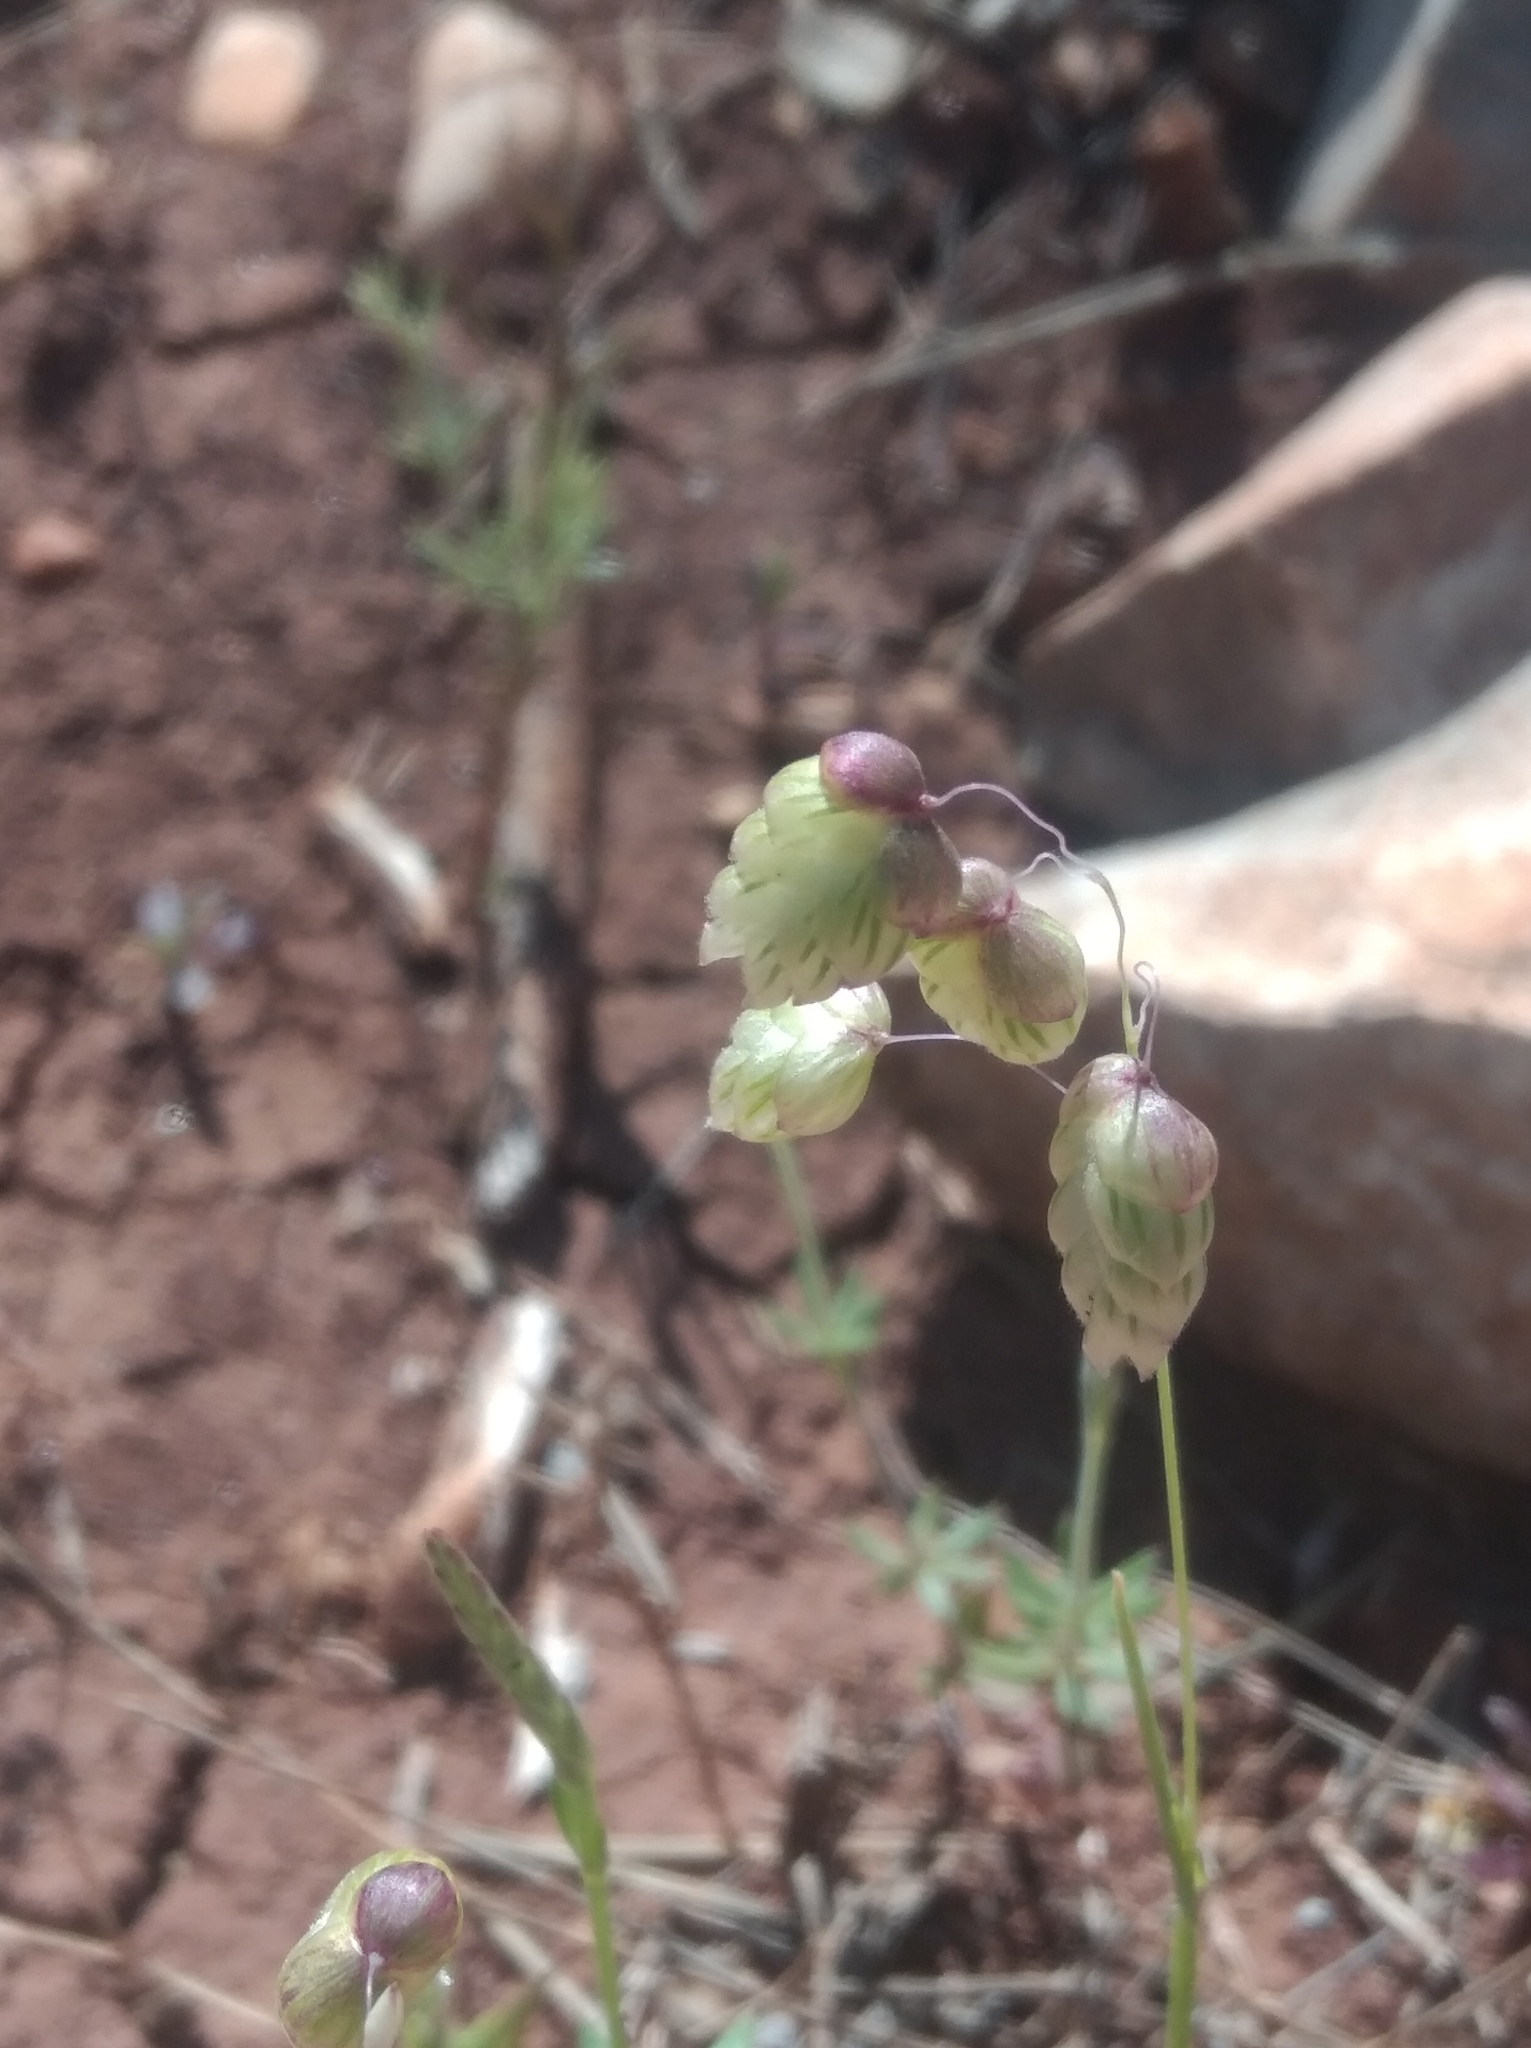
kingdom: Plantae
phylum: Tracheophyta
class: Liliopsida
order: Poales
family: Poaceae
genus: Briza
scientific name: Briza maxima
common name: Big quakinggrass
